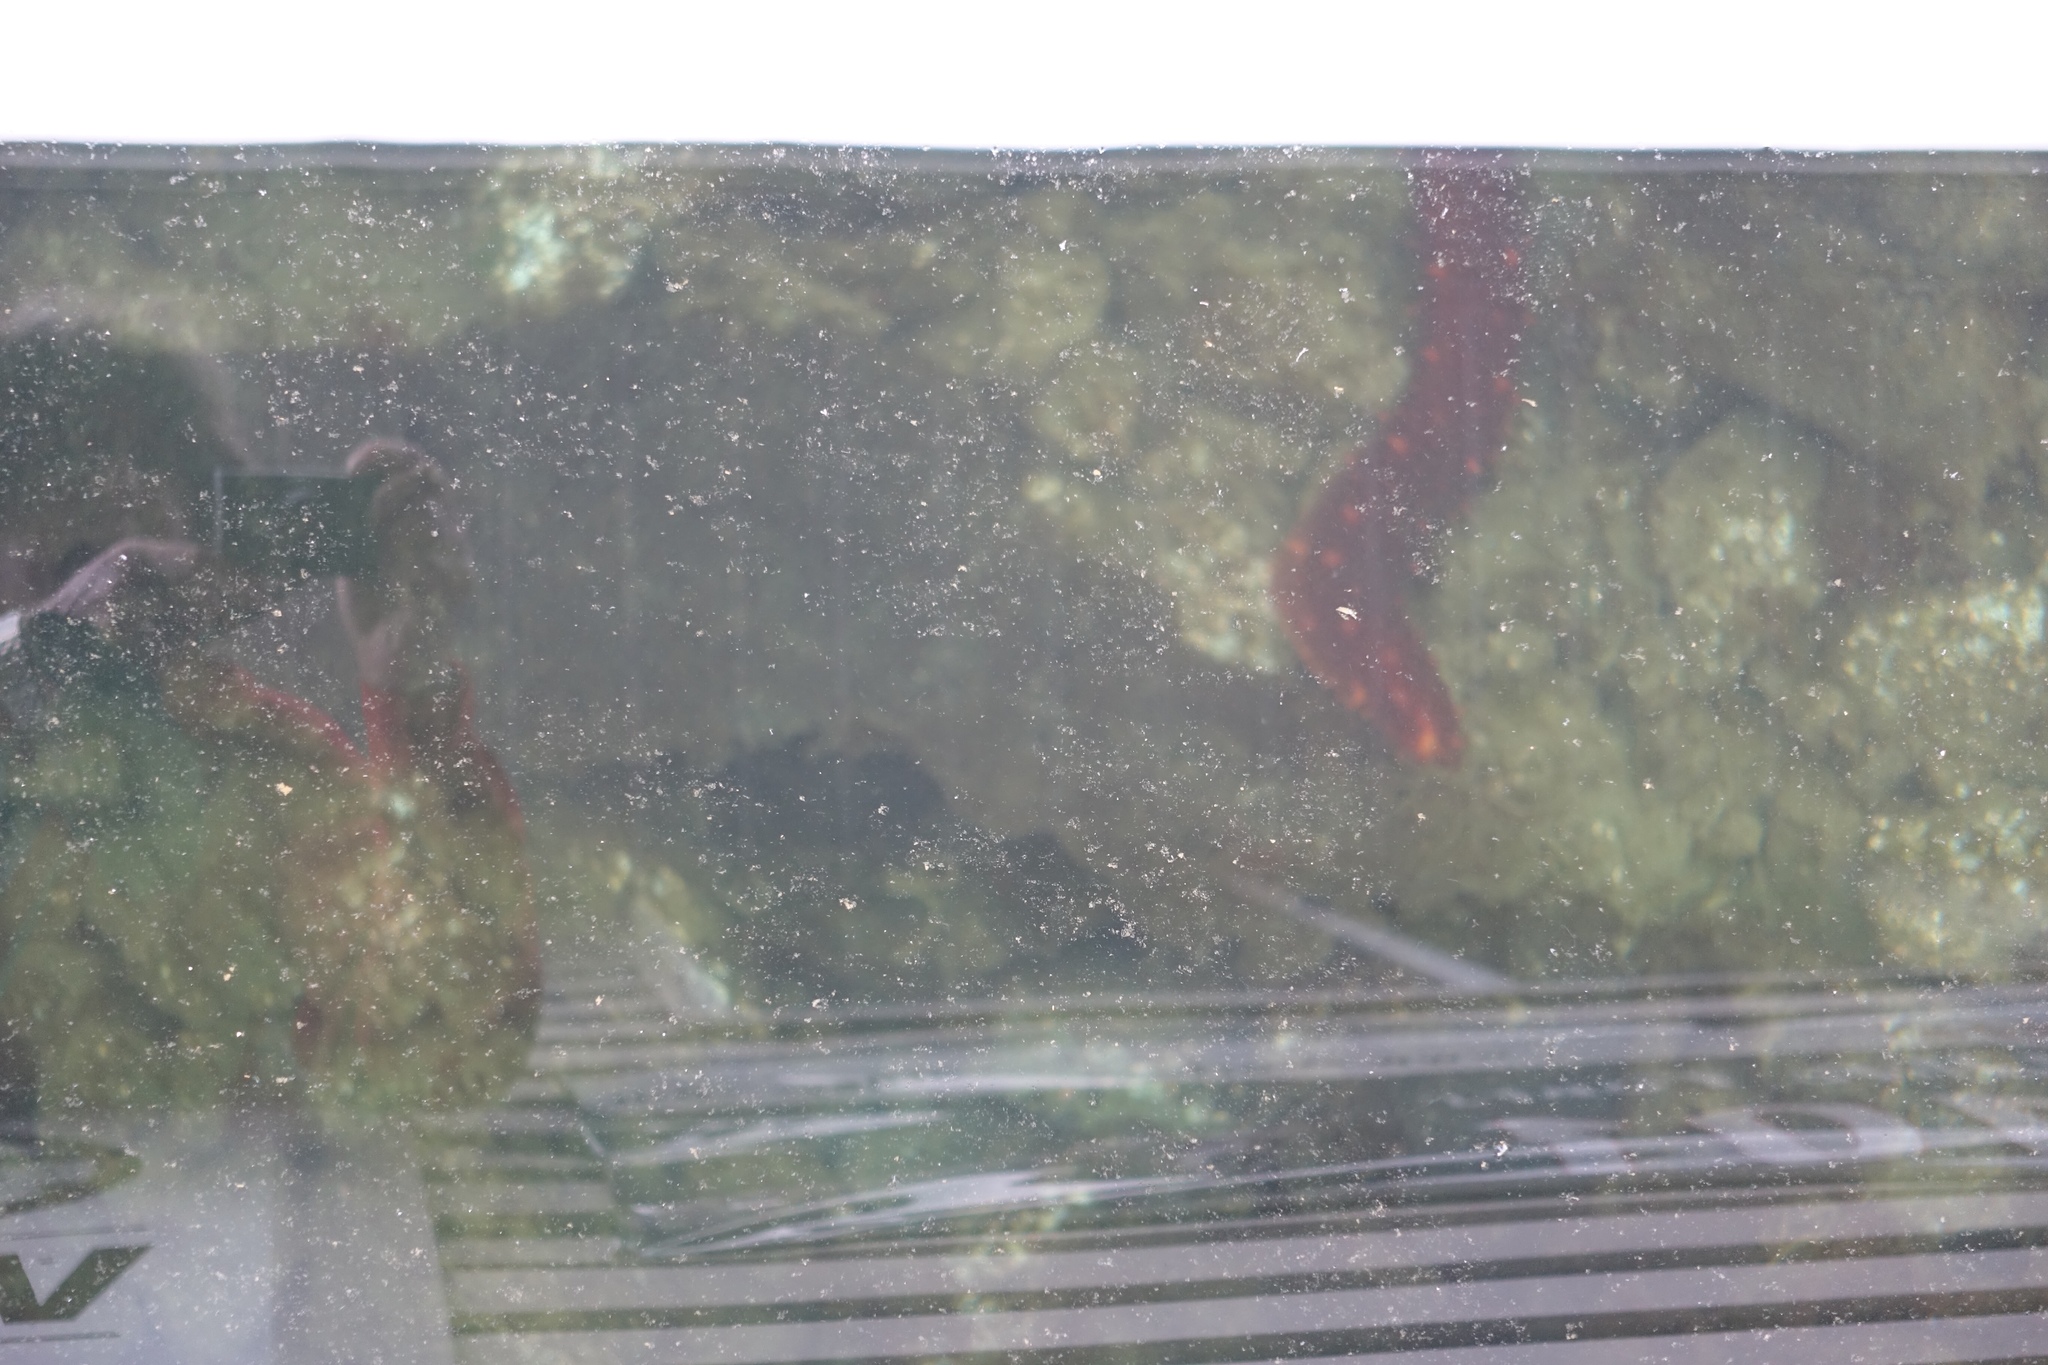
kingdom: Animalia
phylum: Echinodermata
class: Holothuroidea
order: Synallactida
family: Stichopodidae
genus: Apostichopus
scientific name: Apostichopus californicus
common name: California sea cucumber
